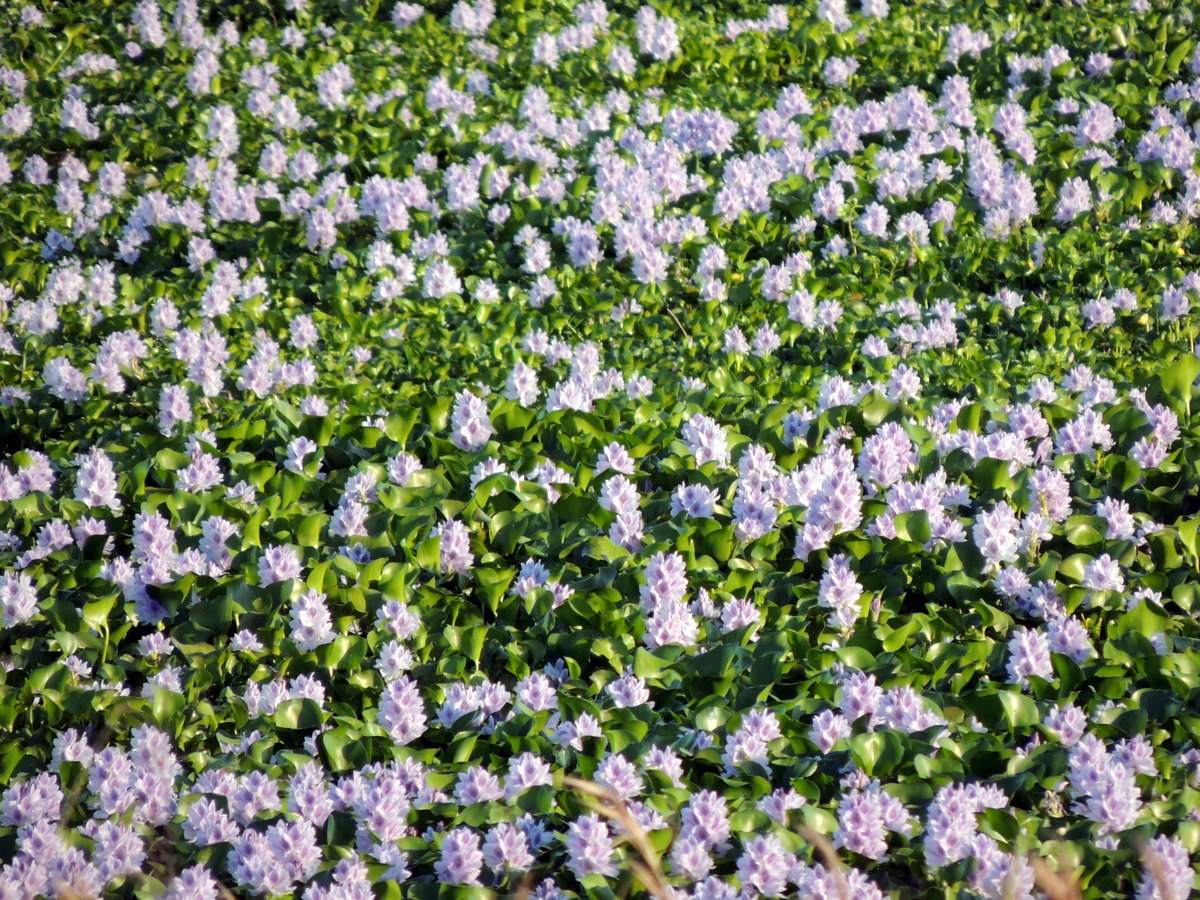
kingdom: Plantae
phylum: Tracheophyta
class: Liliopsida
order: Commelinales
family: Pontederiaceae
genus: Pontederia
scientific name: Pontederia crassipes
